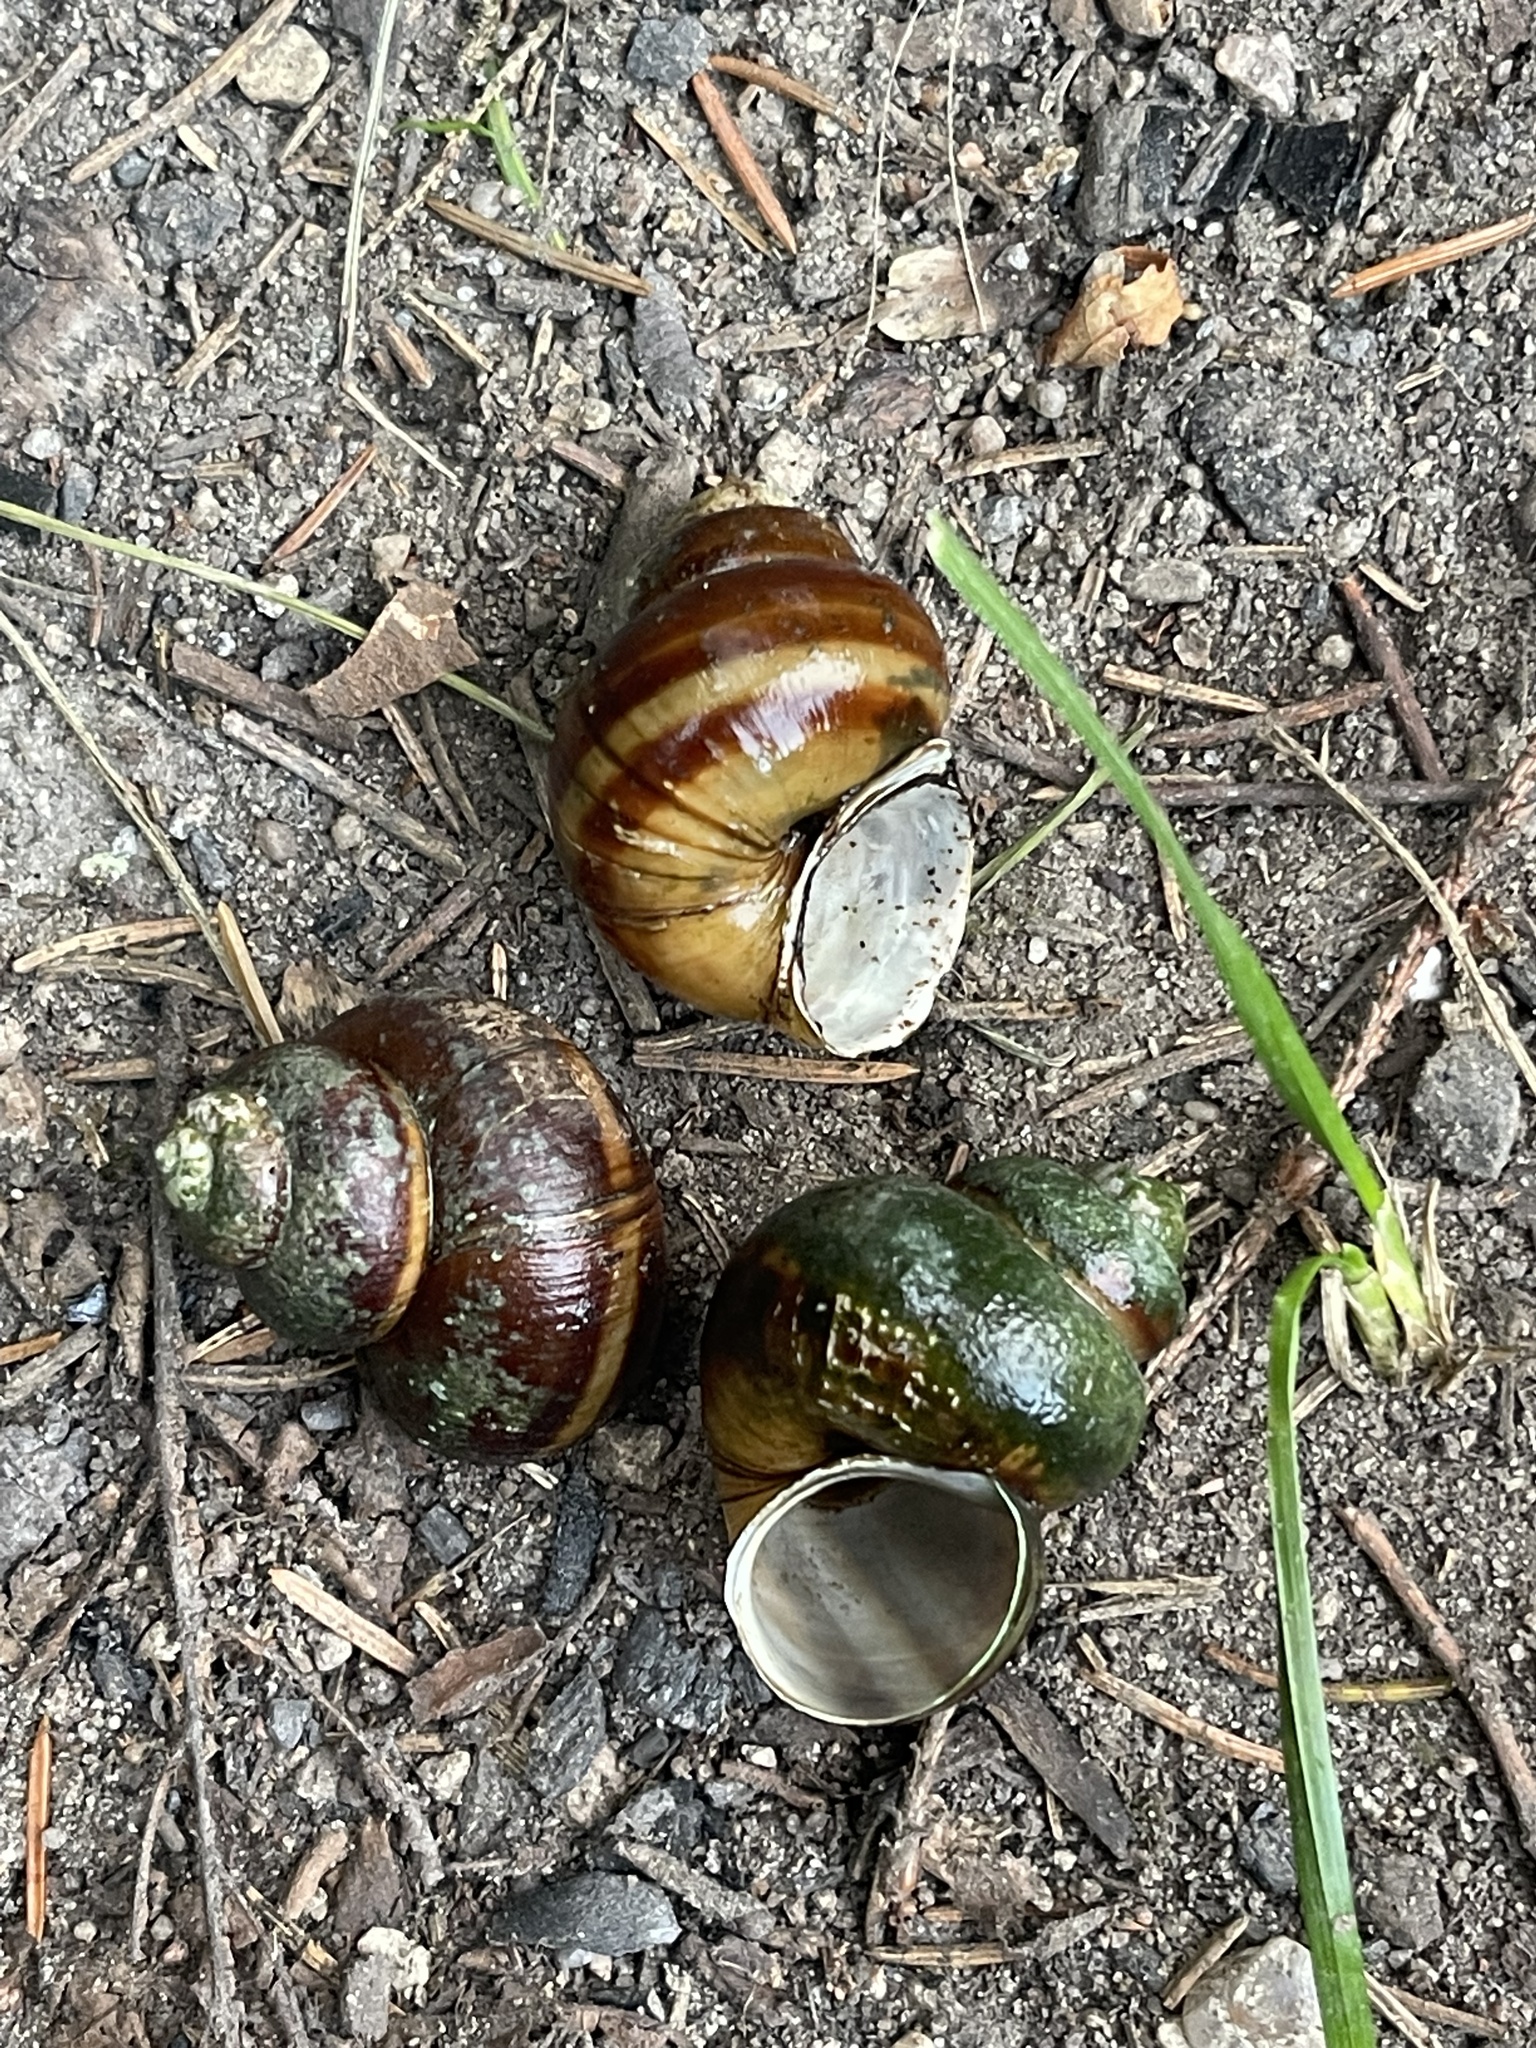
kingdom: Animalia
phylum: Mollusca
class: Gastropoda
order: Architaenioglossa
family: Viviparidae
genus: Viviparus
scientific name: Viviparus contectus
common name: Lister's river snail
